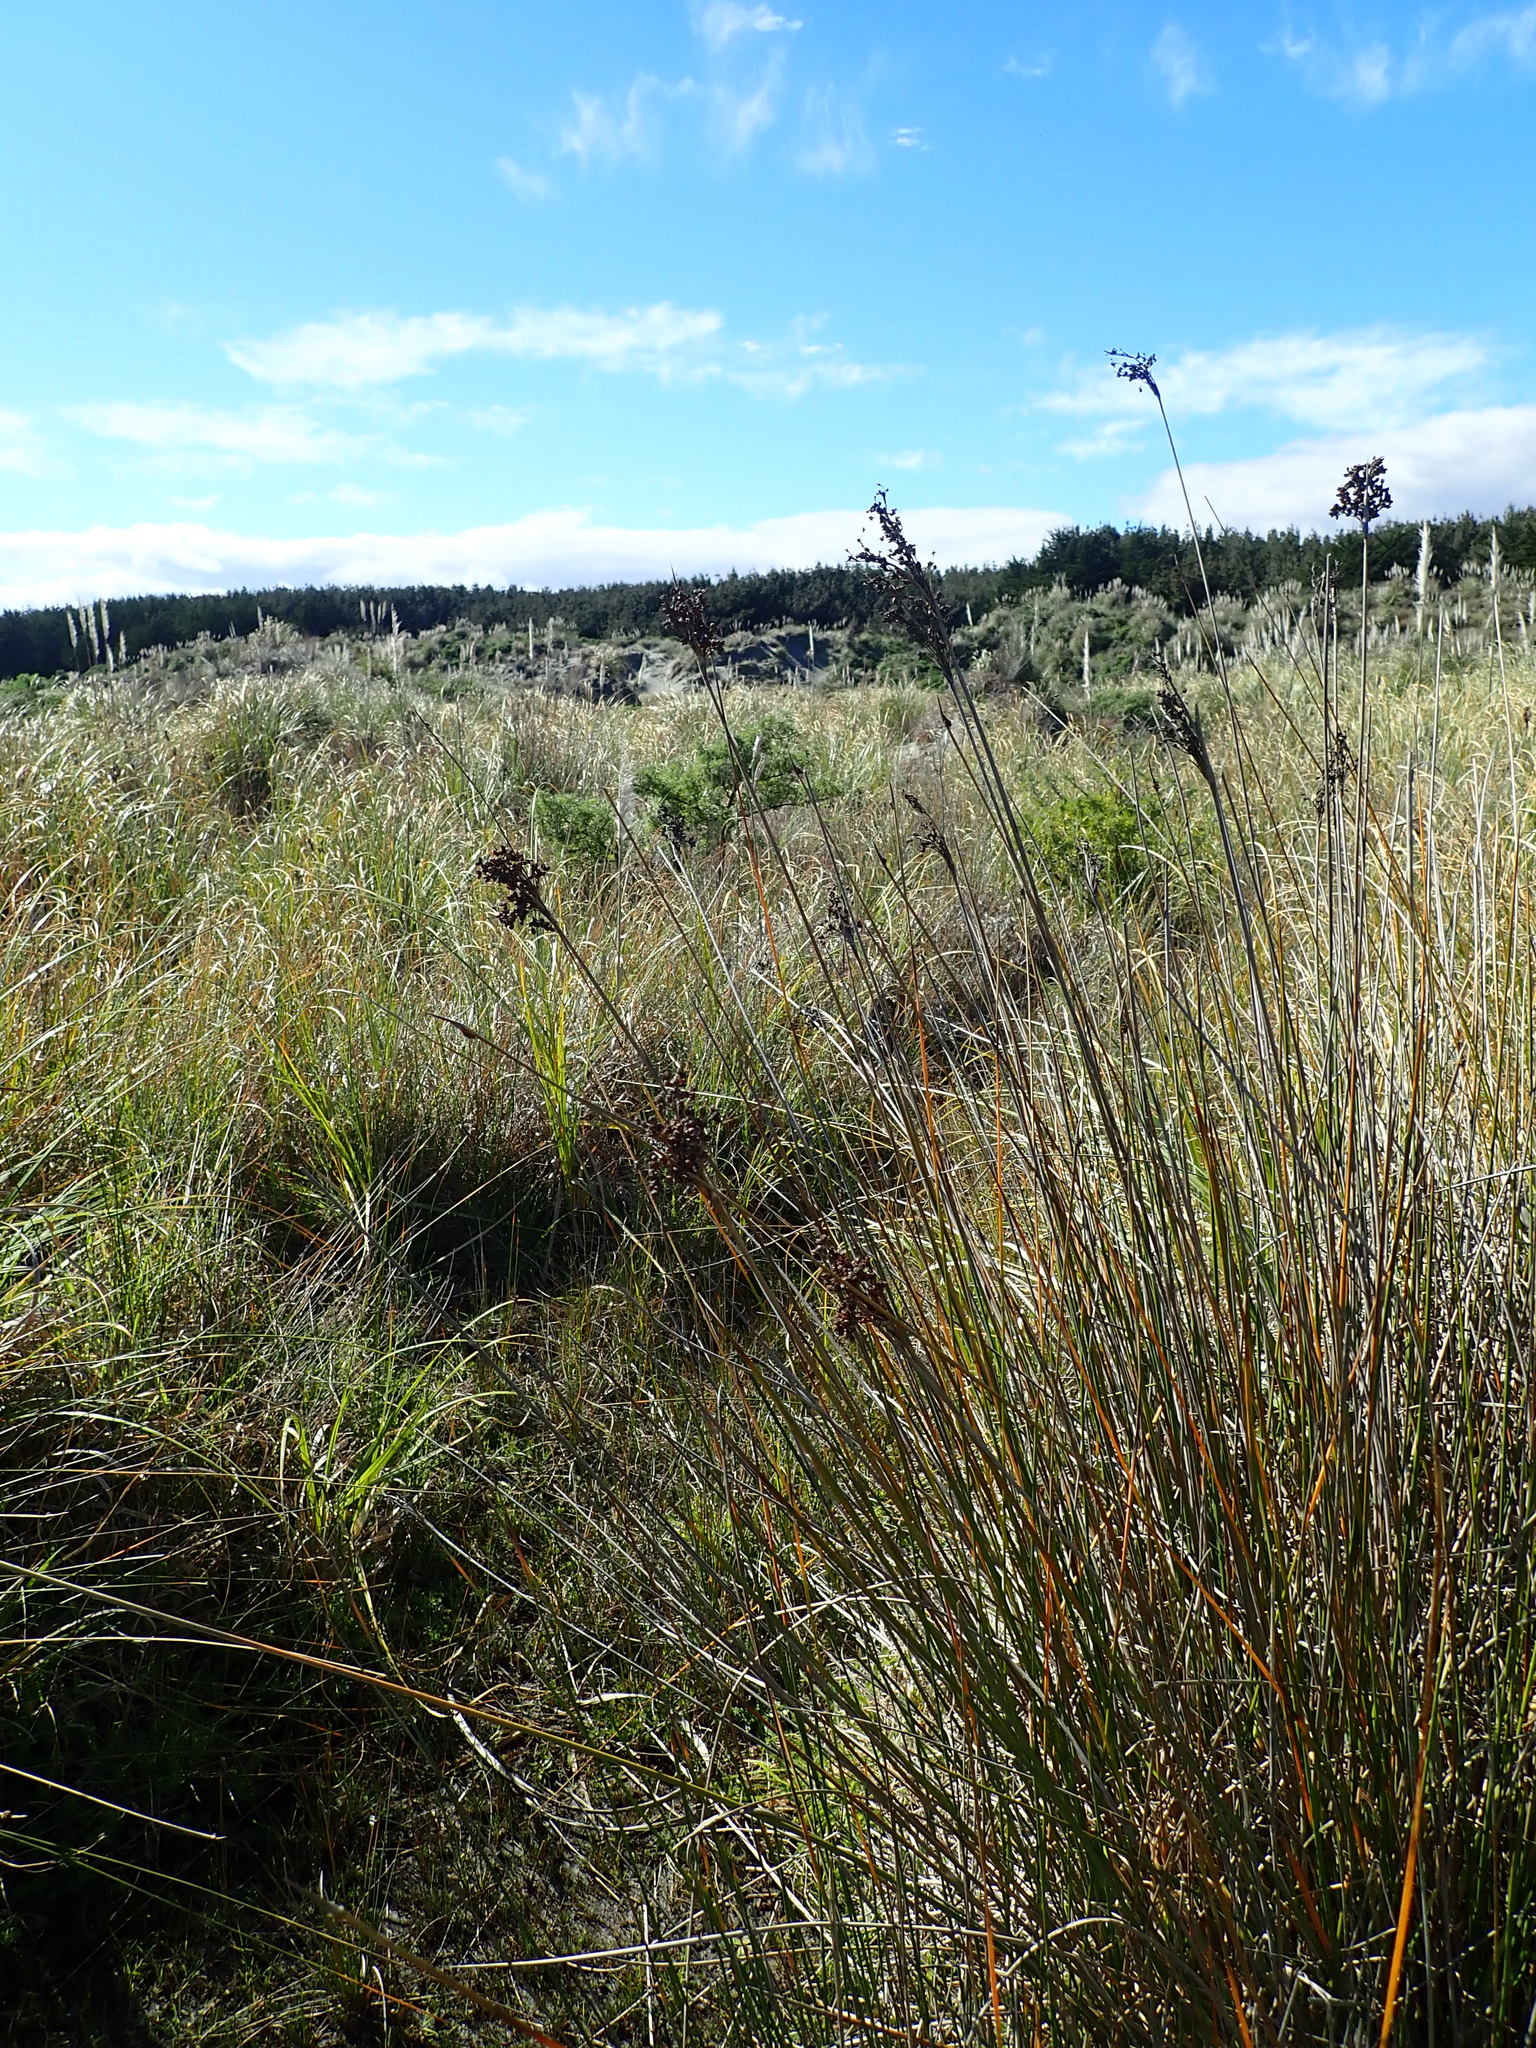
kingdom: Plantae
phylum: Tracheophyta
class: Liliopsida
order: Poales
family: Juncaceae
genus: Juncus
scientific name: Juncus acutus
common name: Sharp rush
